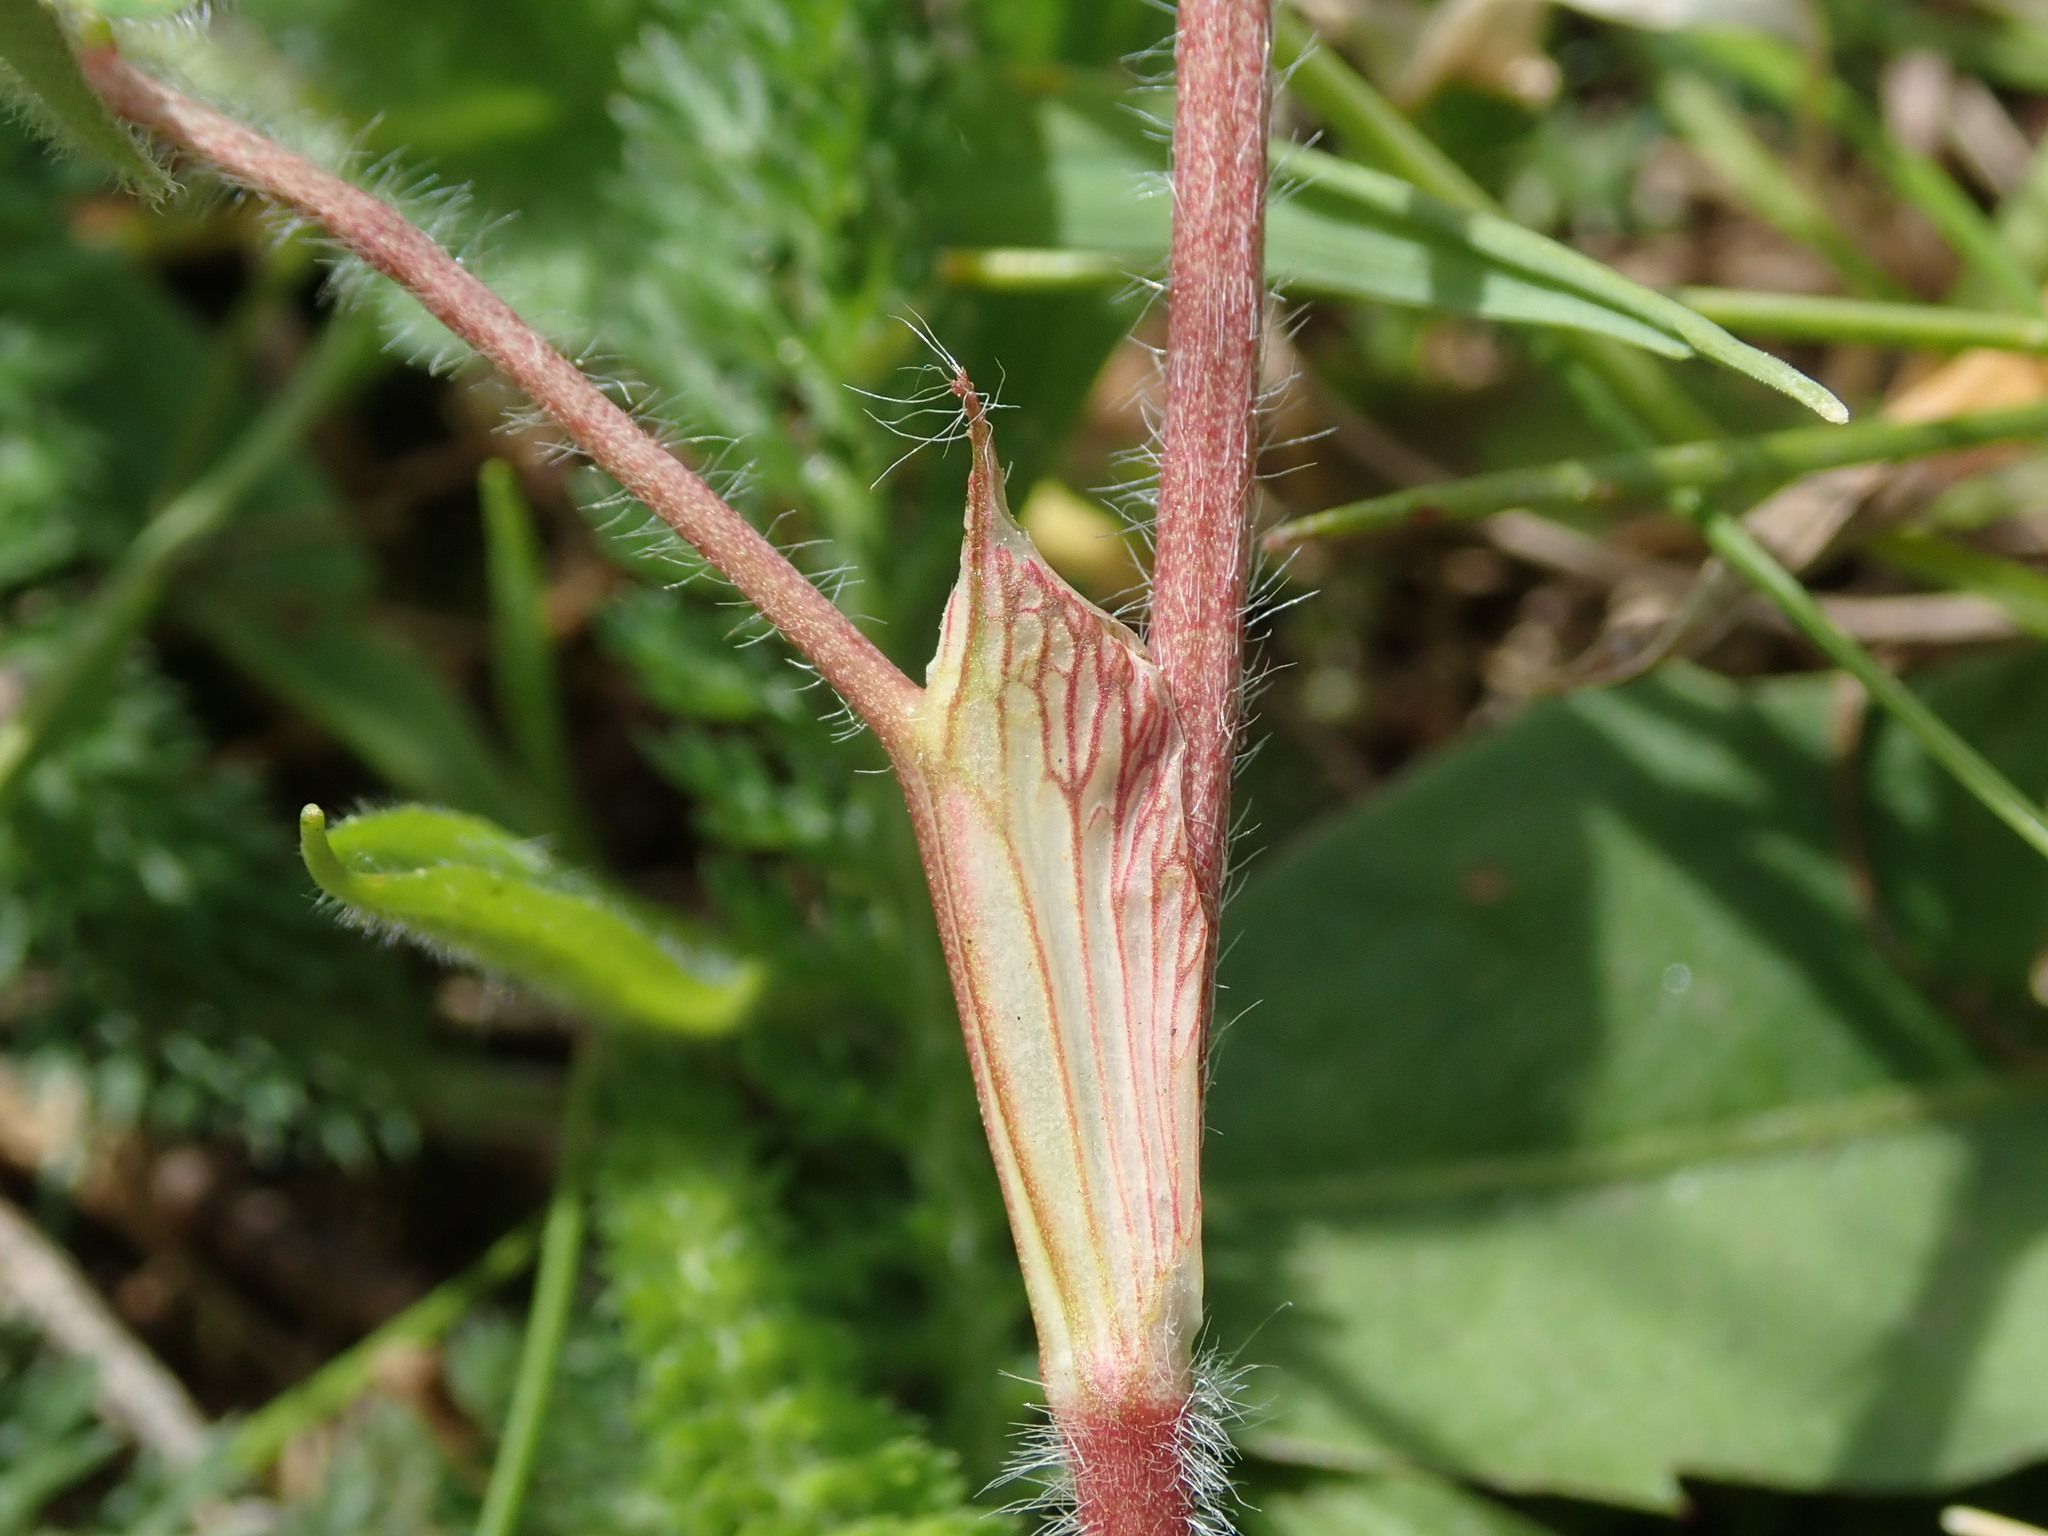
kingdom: Plantae
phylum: Tracheophyta
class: Magnoliopsida
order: Fabales
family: Fabaceae
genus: Trifolium
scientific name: Trifolium pratense
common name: Red clover
